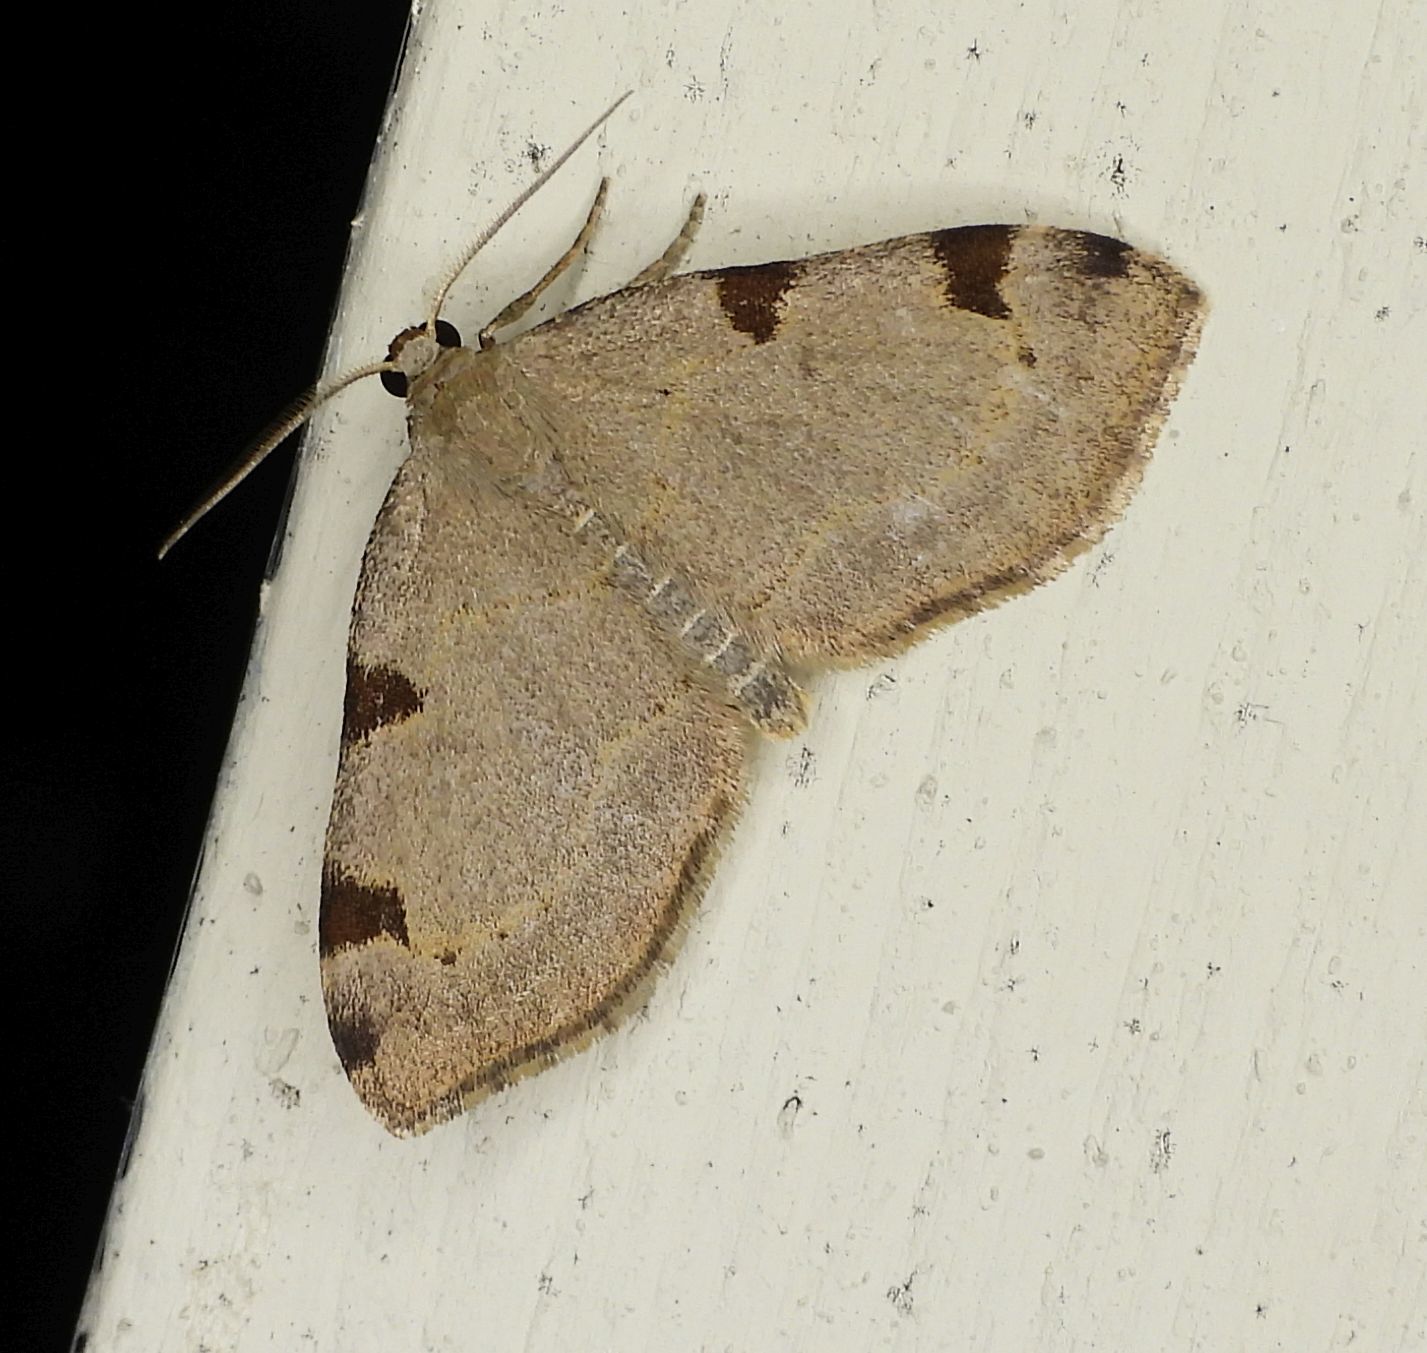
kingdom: Animalia
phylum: Arthropoda
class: Insecta
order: Lepidoptera
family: Geometridae
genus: Heterophleps
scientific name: Heterophleps triguttaria
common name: Three-spotted fillip
